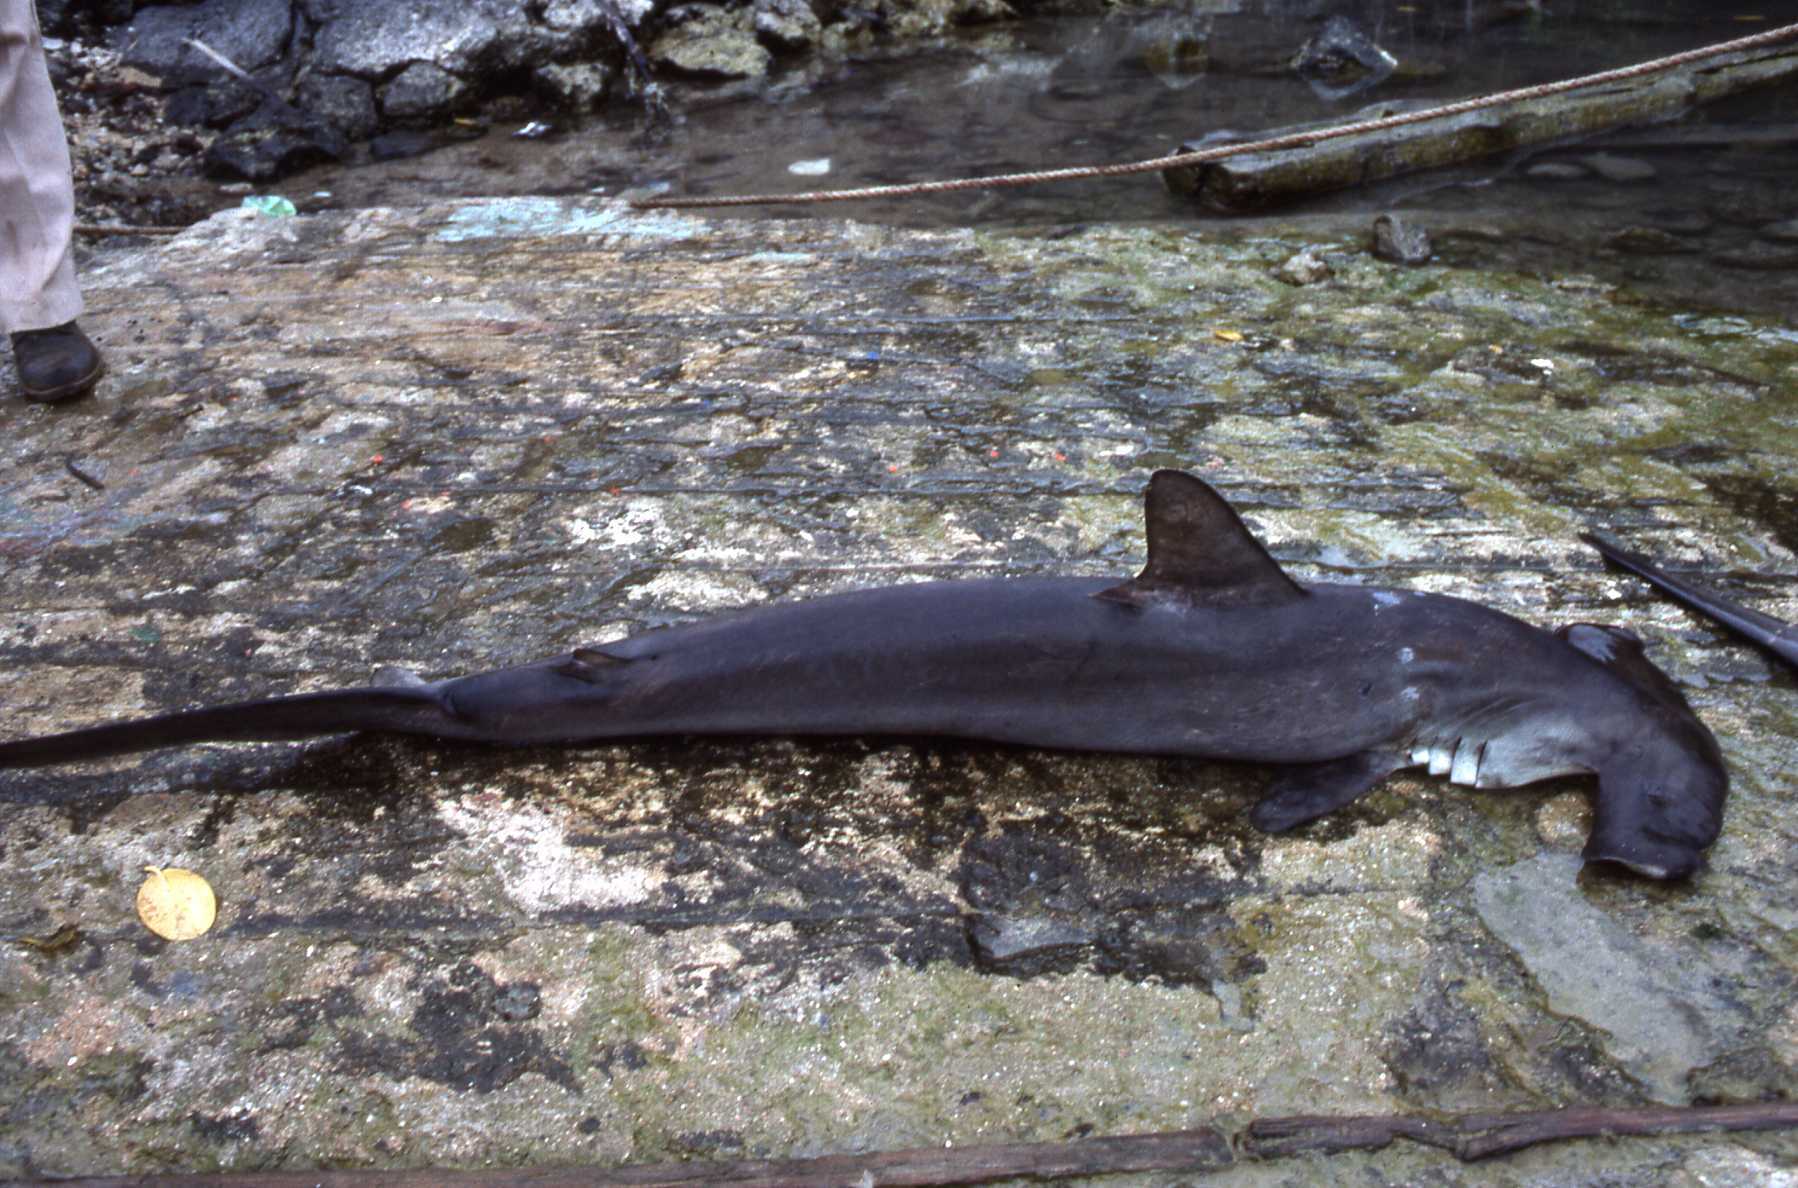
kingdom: Animalia
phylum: Chordata
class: Elasmobranchii
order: Carcharhiniformes
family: Sphyrnidae
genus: Sphyrna
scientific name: Sphyrna lewini
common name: Scalloped hammerhead
